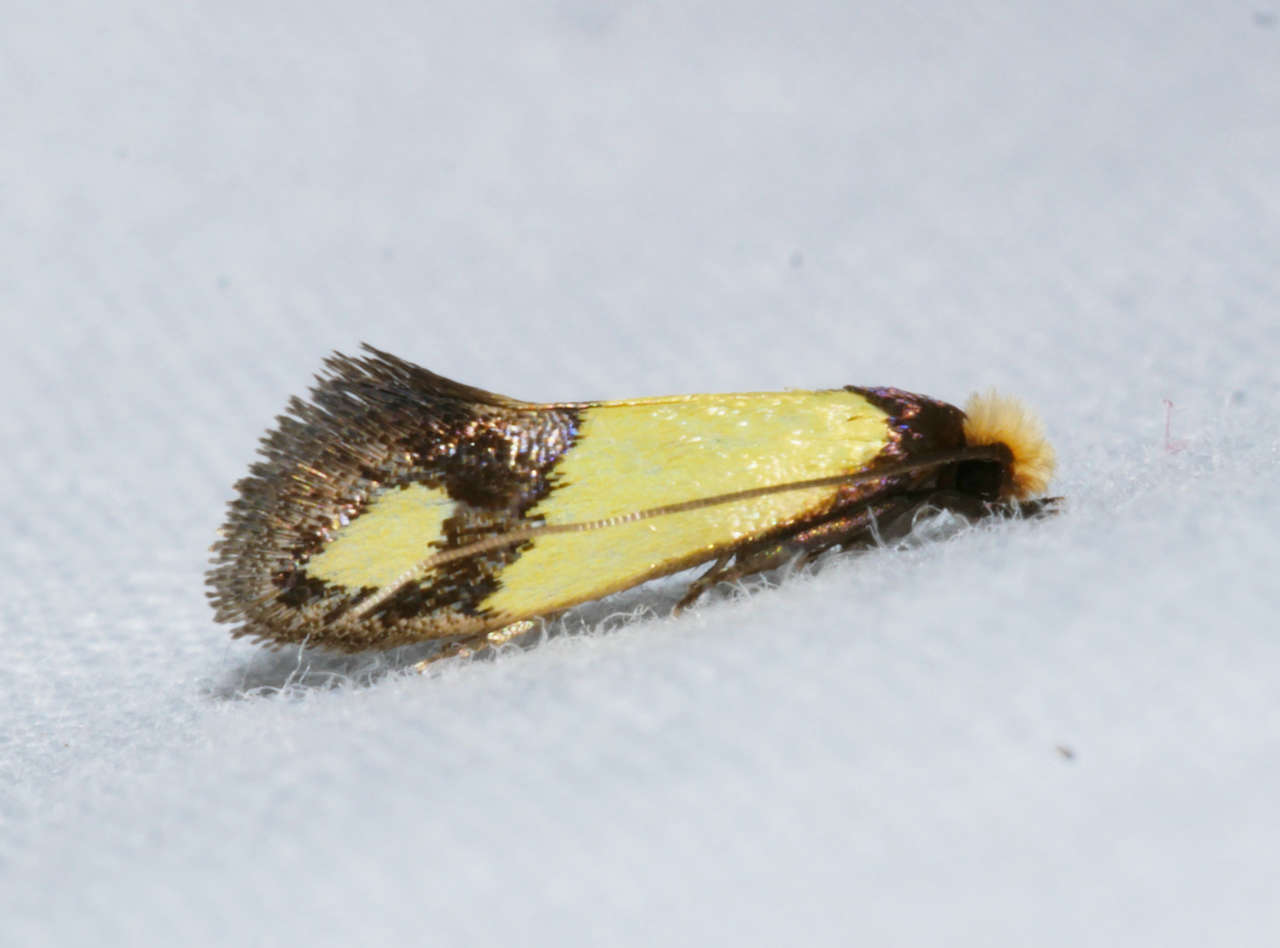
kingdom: Animalia
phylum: Arthropoda
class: Insecta
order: Lepidoptera
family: Tineidae
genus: Edosa
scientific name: Edosa fraudulens
